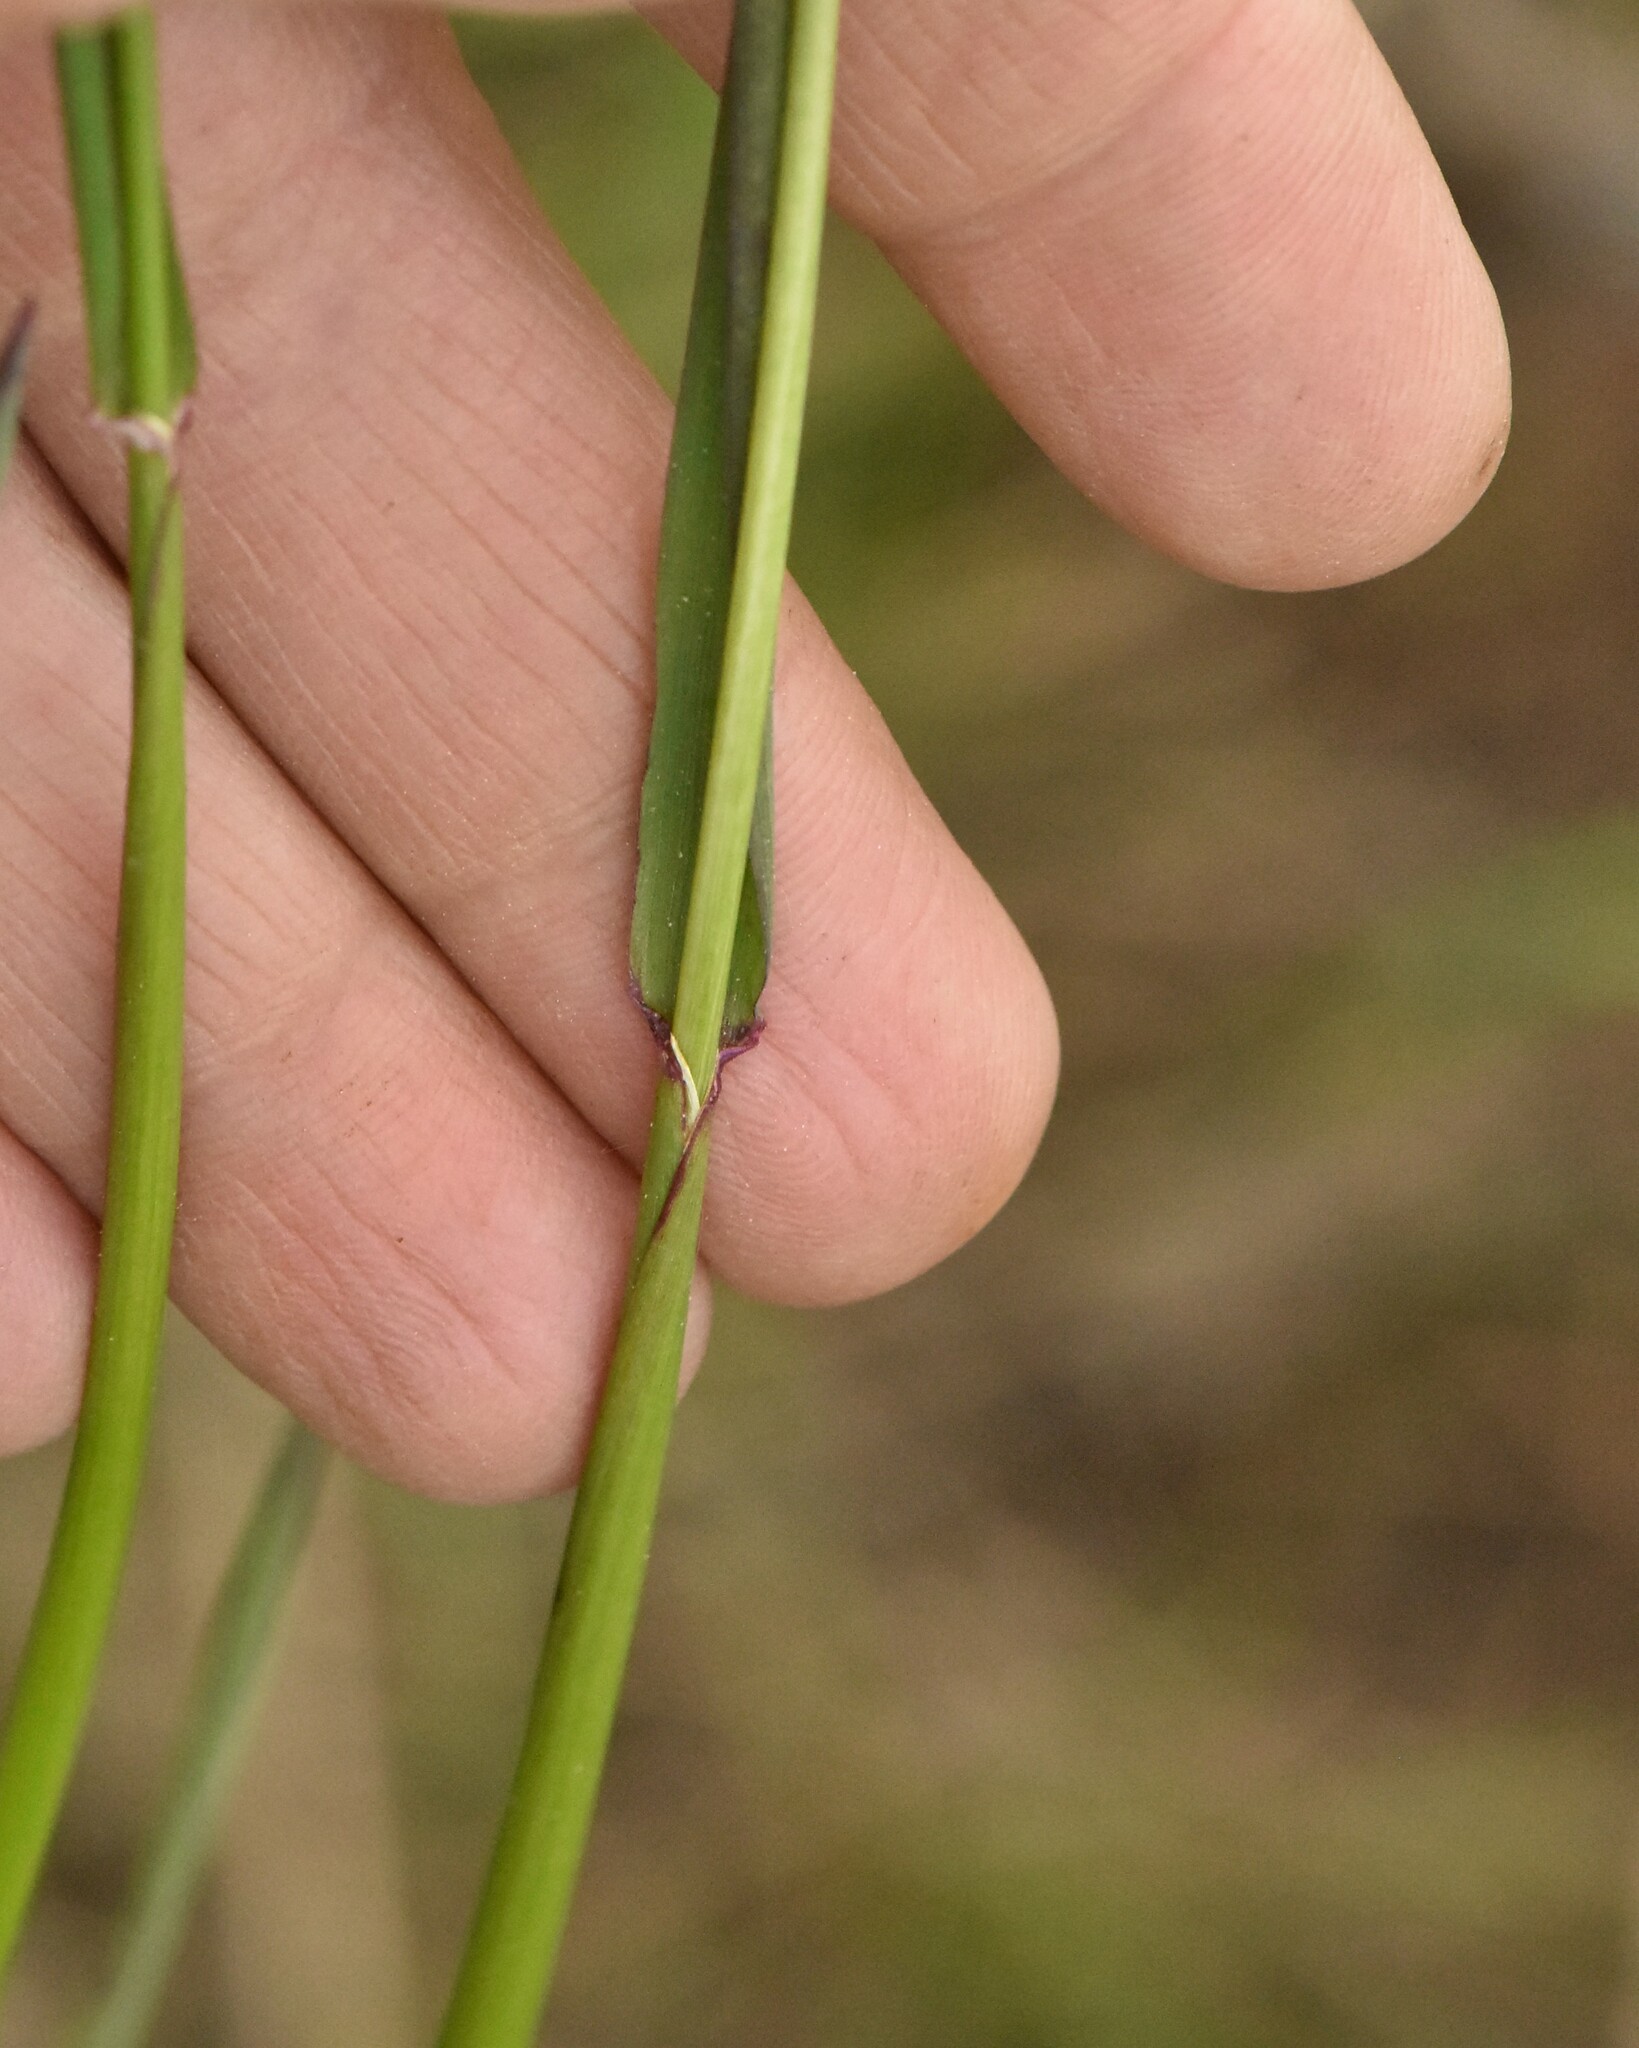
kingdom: Plantae
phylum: Tracheophyta
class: Liliopsida
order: Poales
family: Poaceae
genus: Alopecurus
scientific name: Alopecurus pratensis
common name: Meadow foxtail
